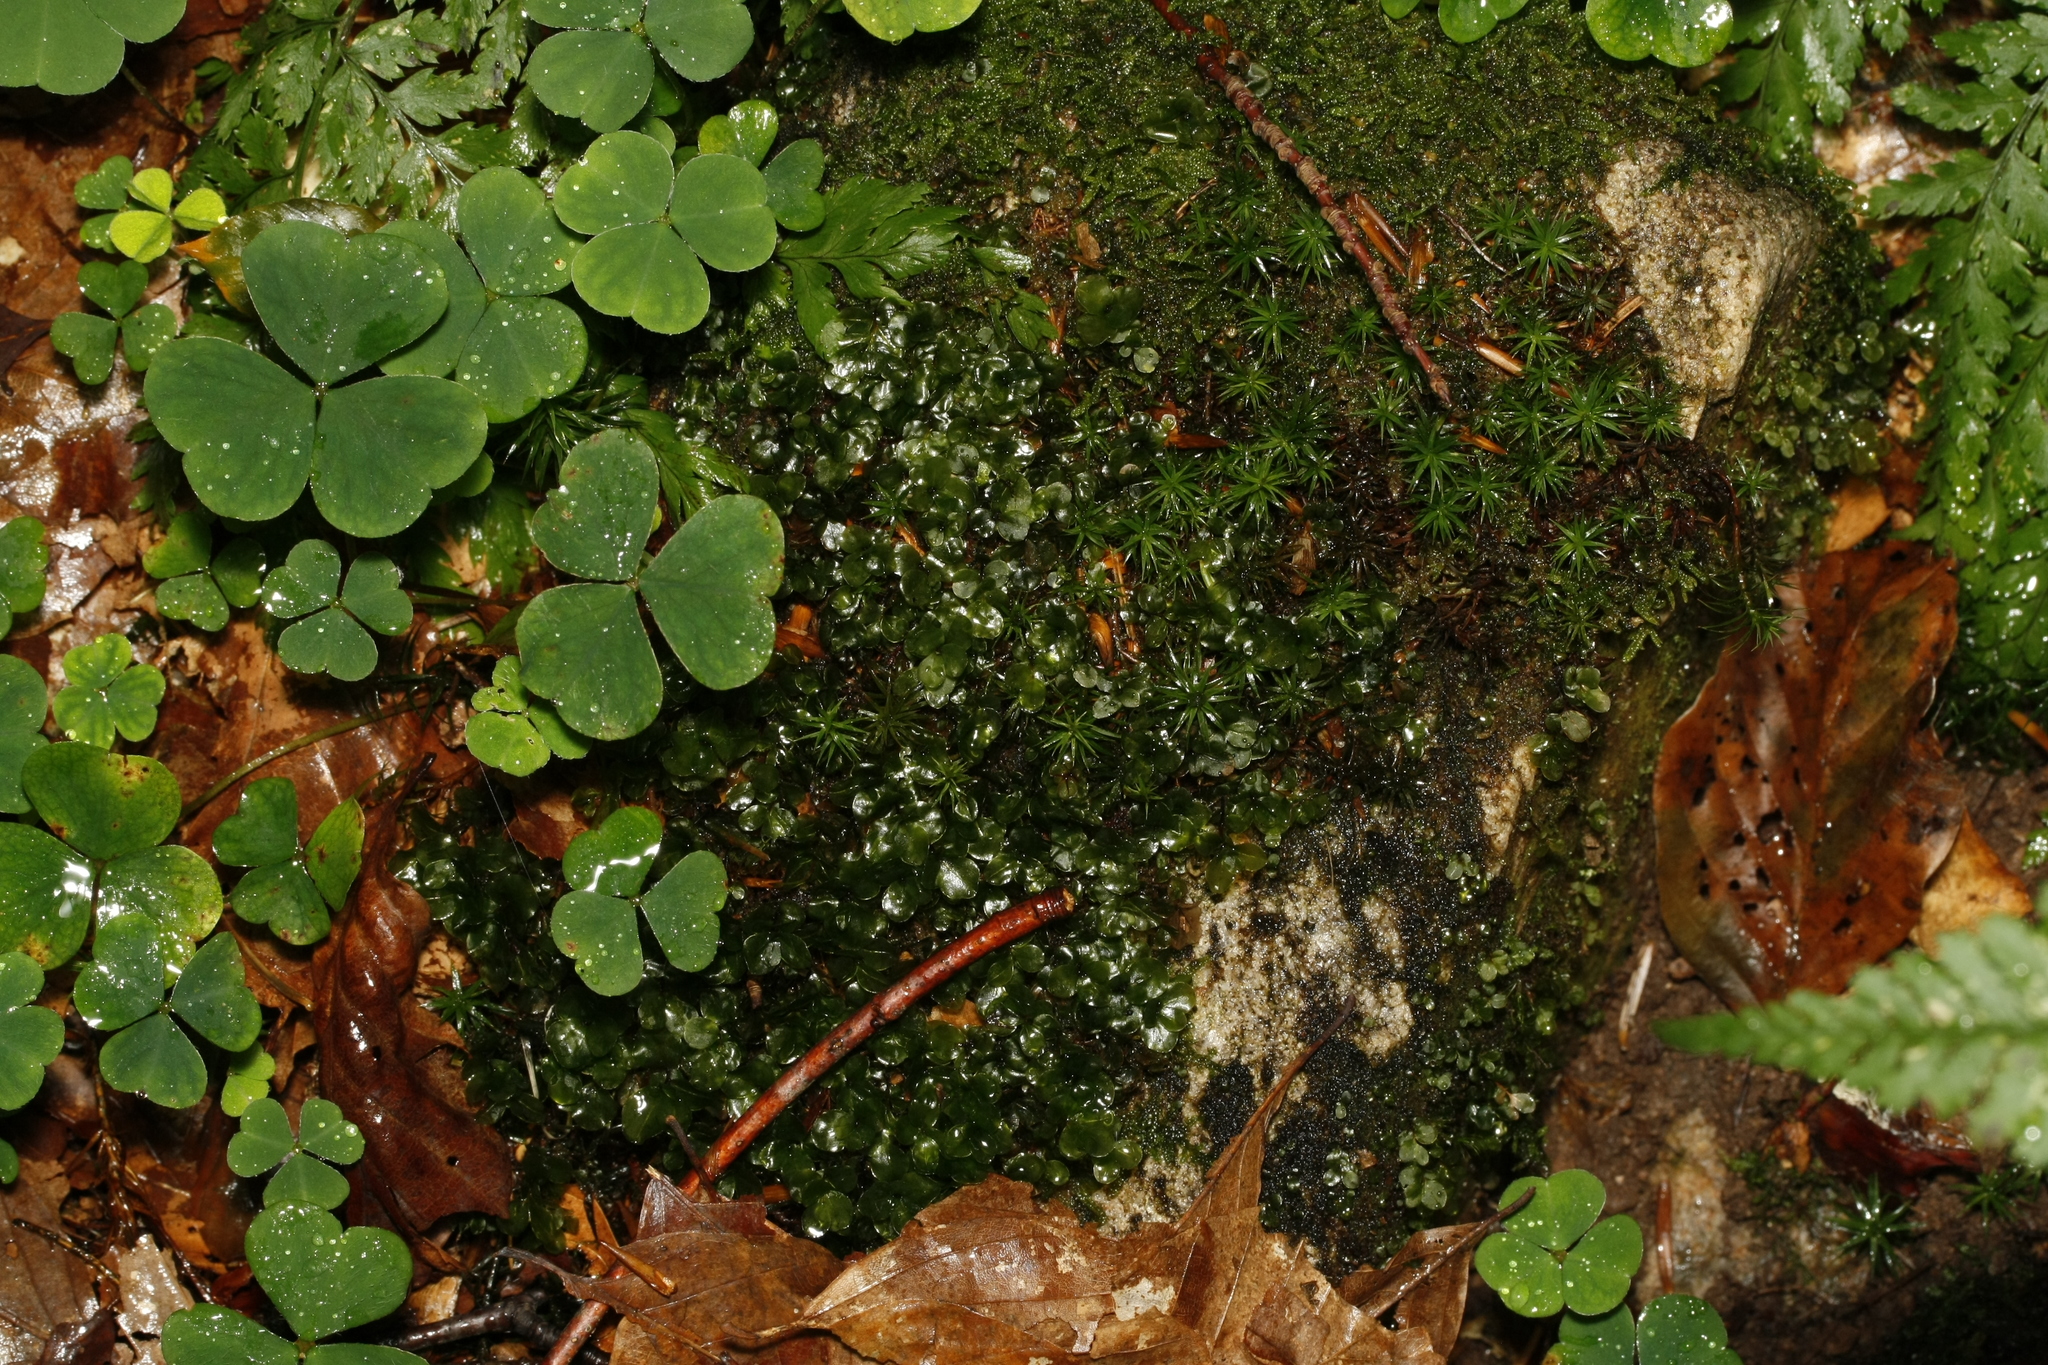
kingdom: Plantae
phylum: Bryophyta
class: Bryopsida
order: Bryales
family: Mniaceae
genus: Rhizomnium
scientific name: Rhizomnium punctatum
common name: Dotted leafy moss
